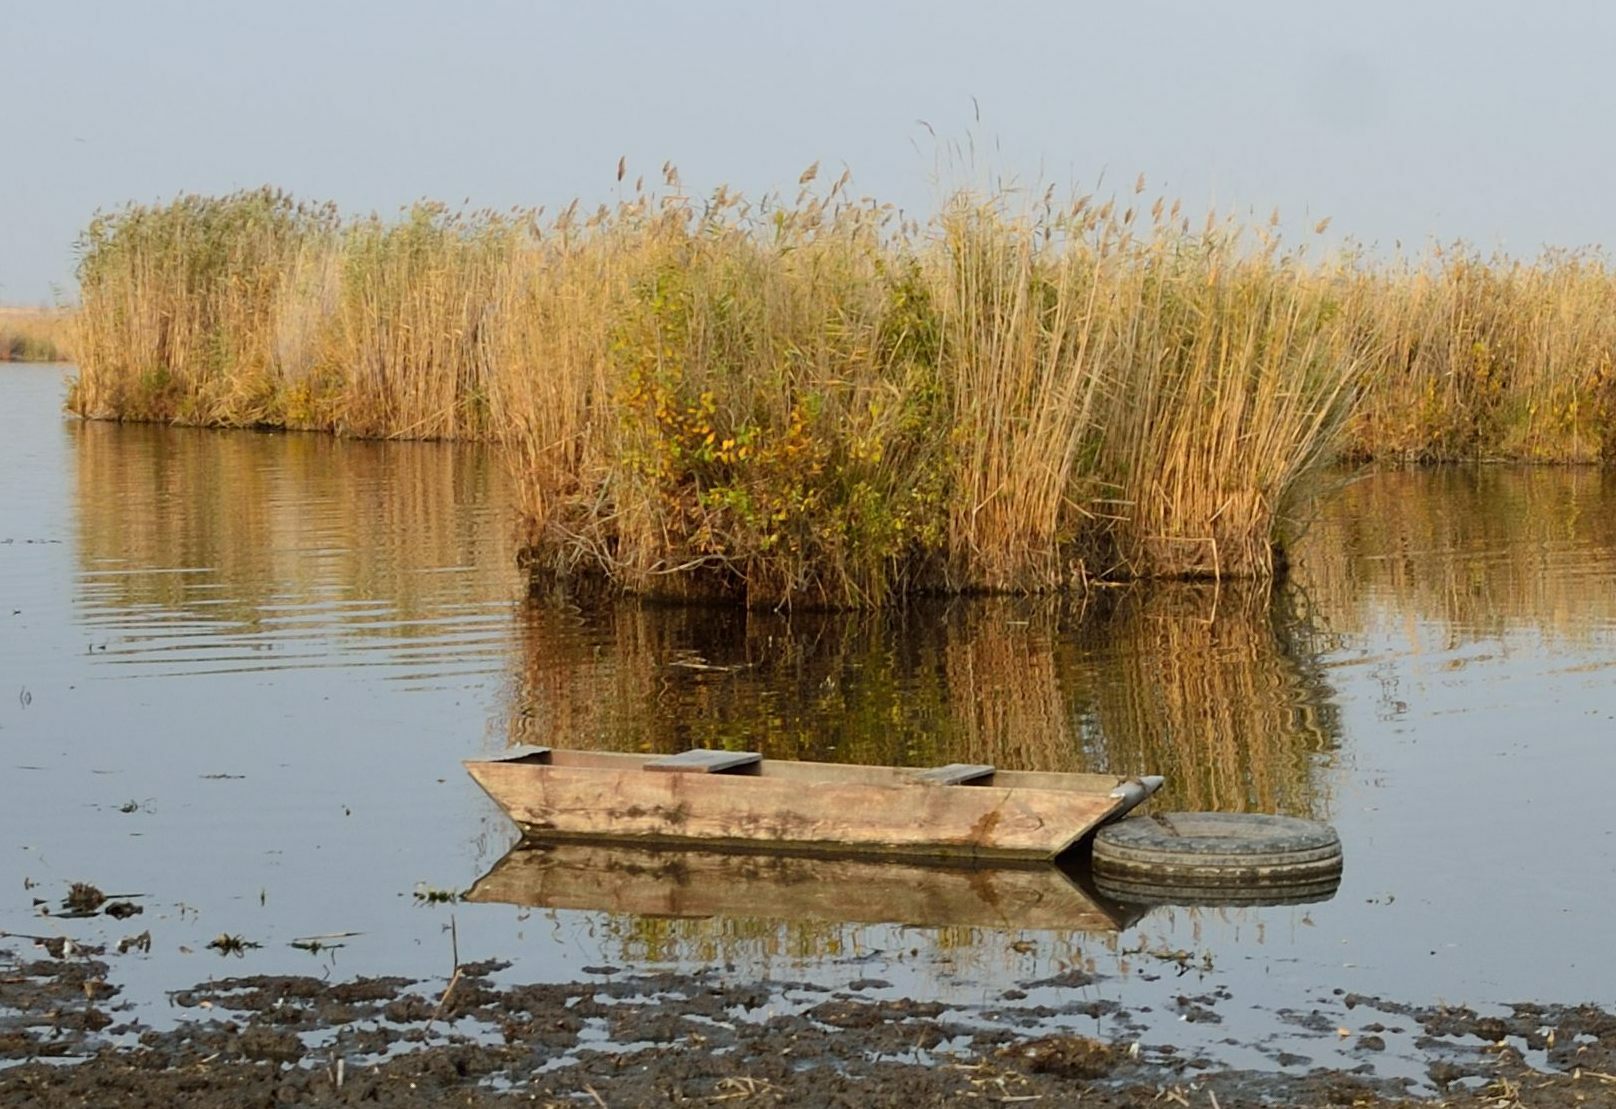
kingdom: Plantae
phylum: Tracheophyta
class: Liliopsida
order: Poales
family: Poaceae
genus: Phragmites
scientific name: Phragmites australis
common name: Common reed
